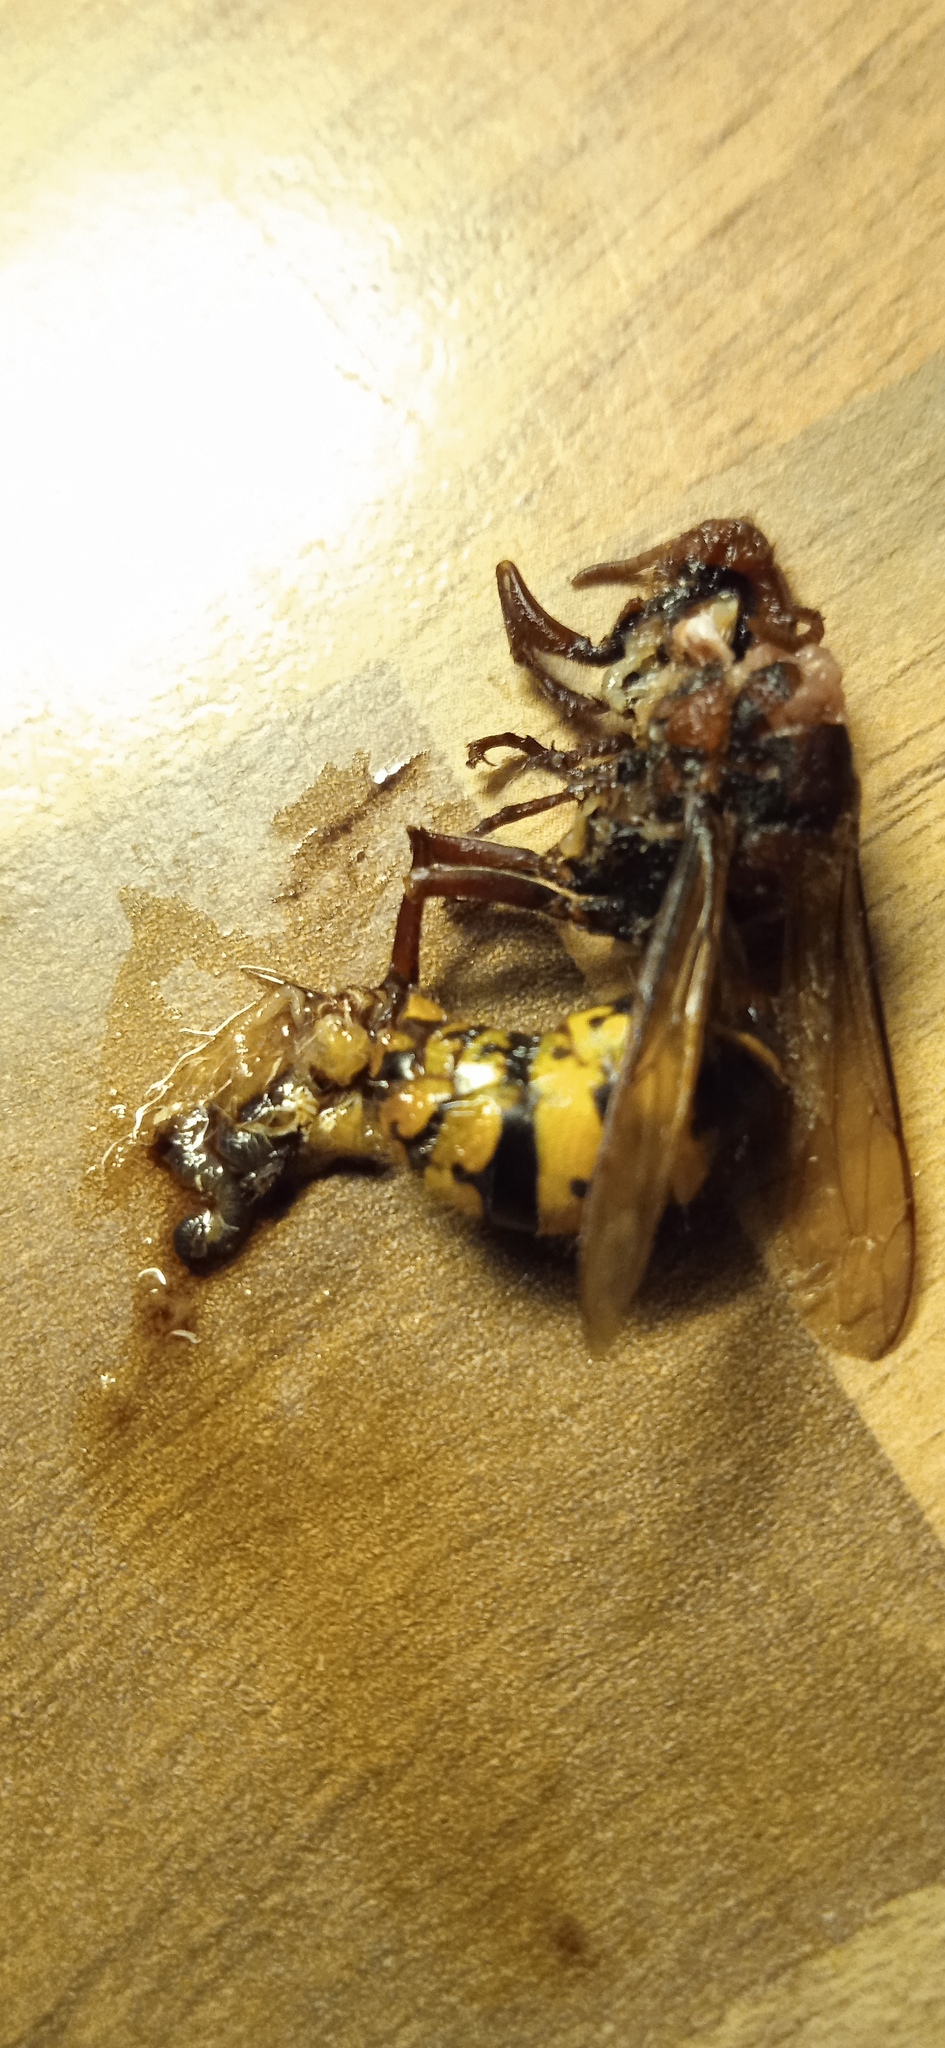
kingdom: Animalia
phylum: Arthropoda
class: Insecta
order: Hymenoptera
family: Vespidae
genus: Vespa
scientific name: Vespa crabro
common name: Hornet
